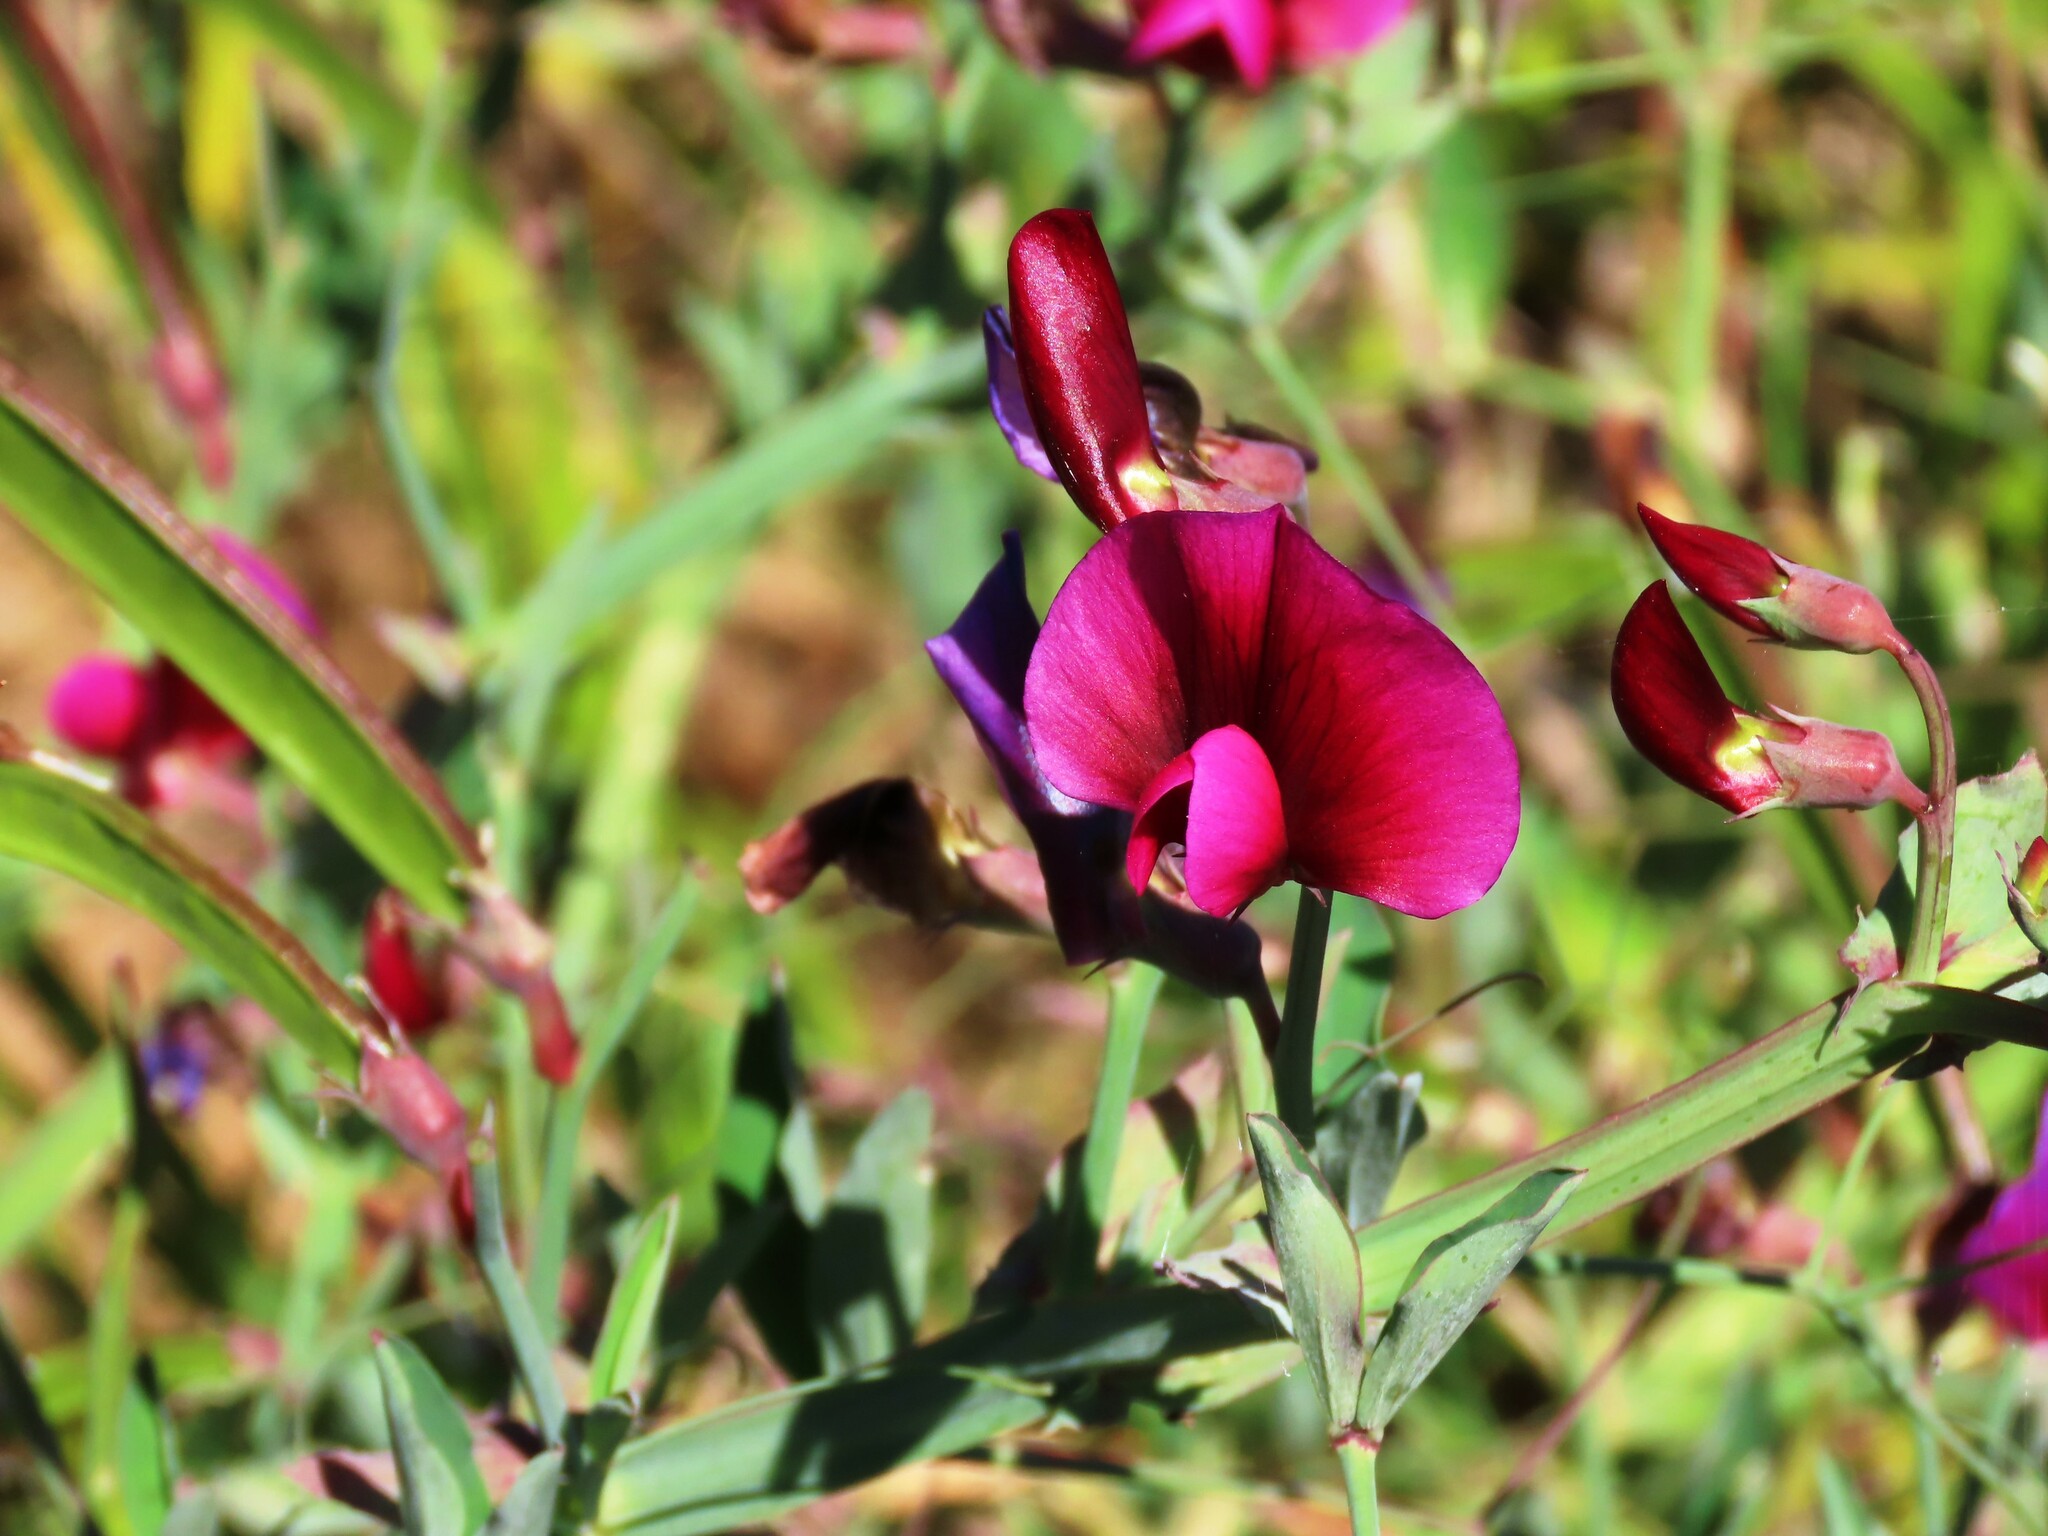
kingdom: Plantae
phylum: Tracheophyta
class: Magnoliopsida
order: Fabales
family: Fabaceae
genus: Lathyrus
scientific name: Lathyrus tingitanus
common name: Tangier pea
